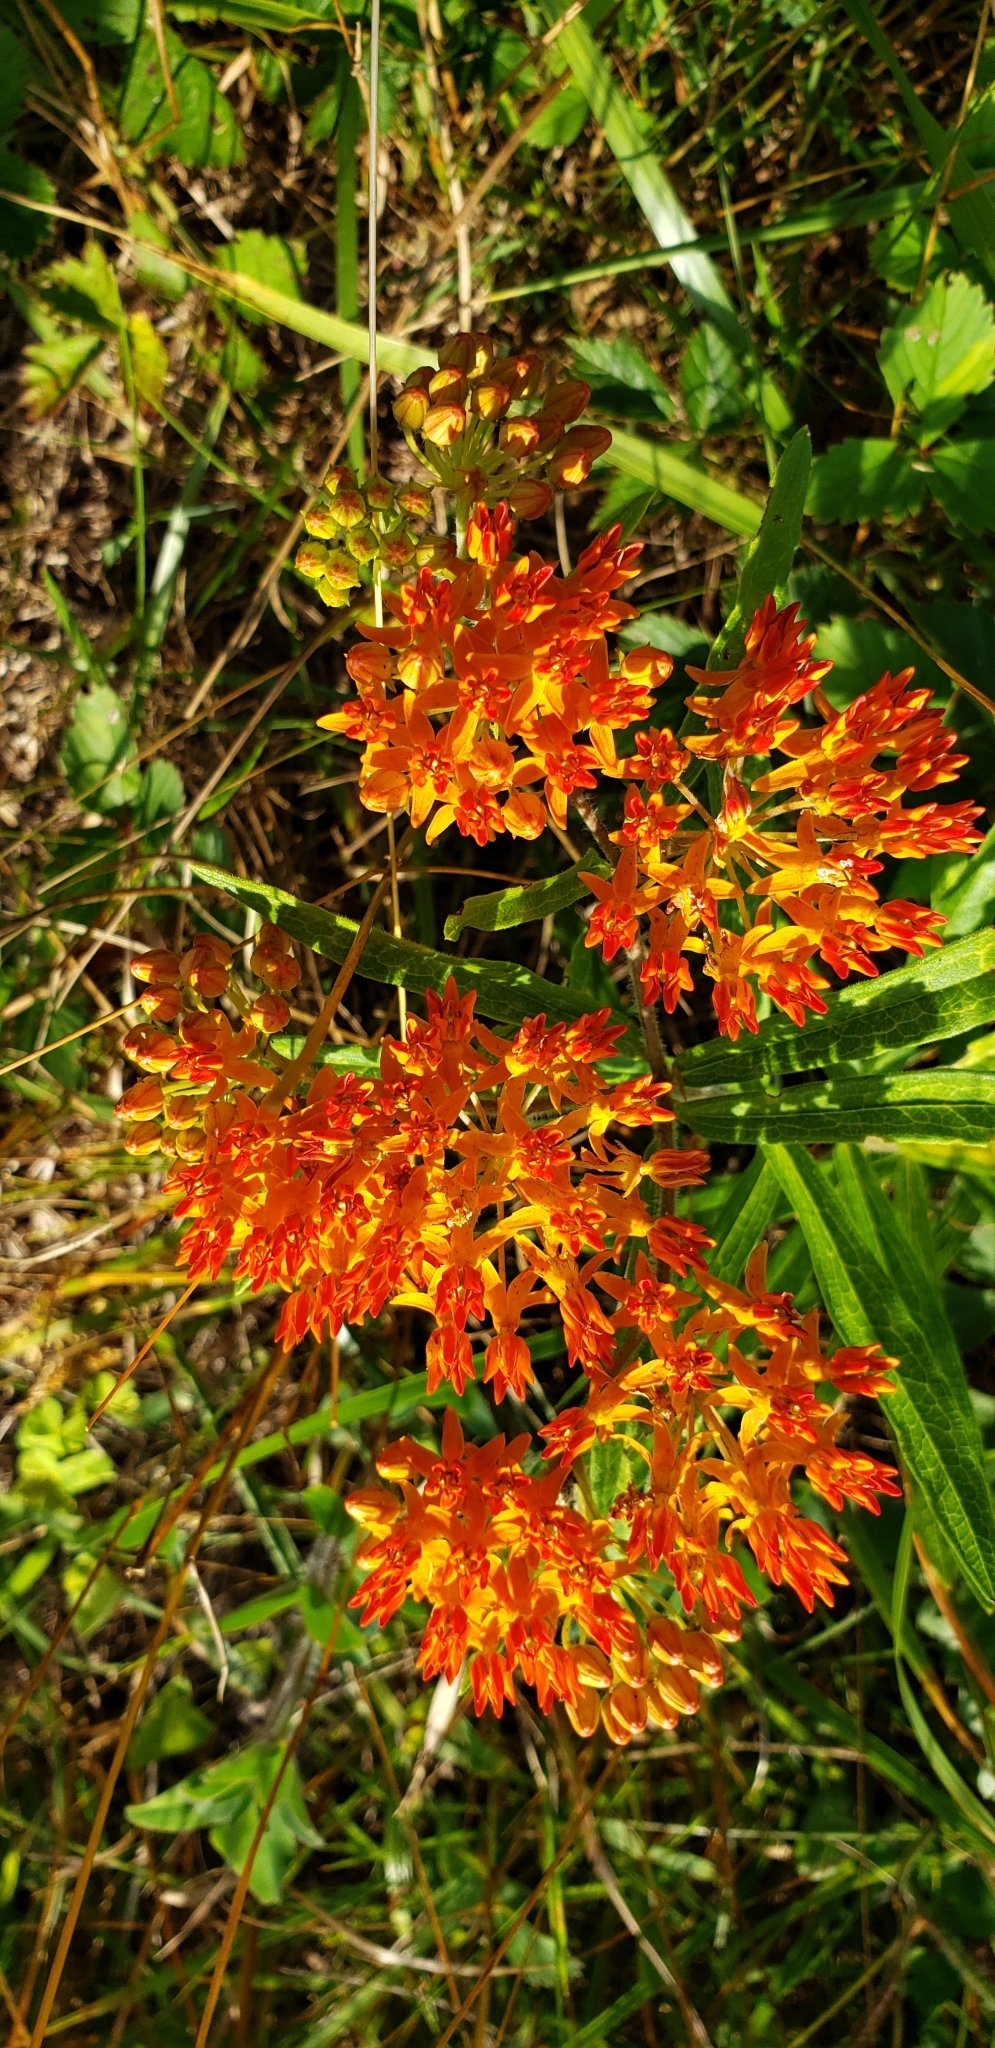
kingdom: Plantae
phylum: Tracheophyta
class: Magnoliopsida
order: Gentianales
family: Apocynaceae
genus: Asclepias
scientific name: Asclepias tuberosa
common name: Butterfly milkweed
